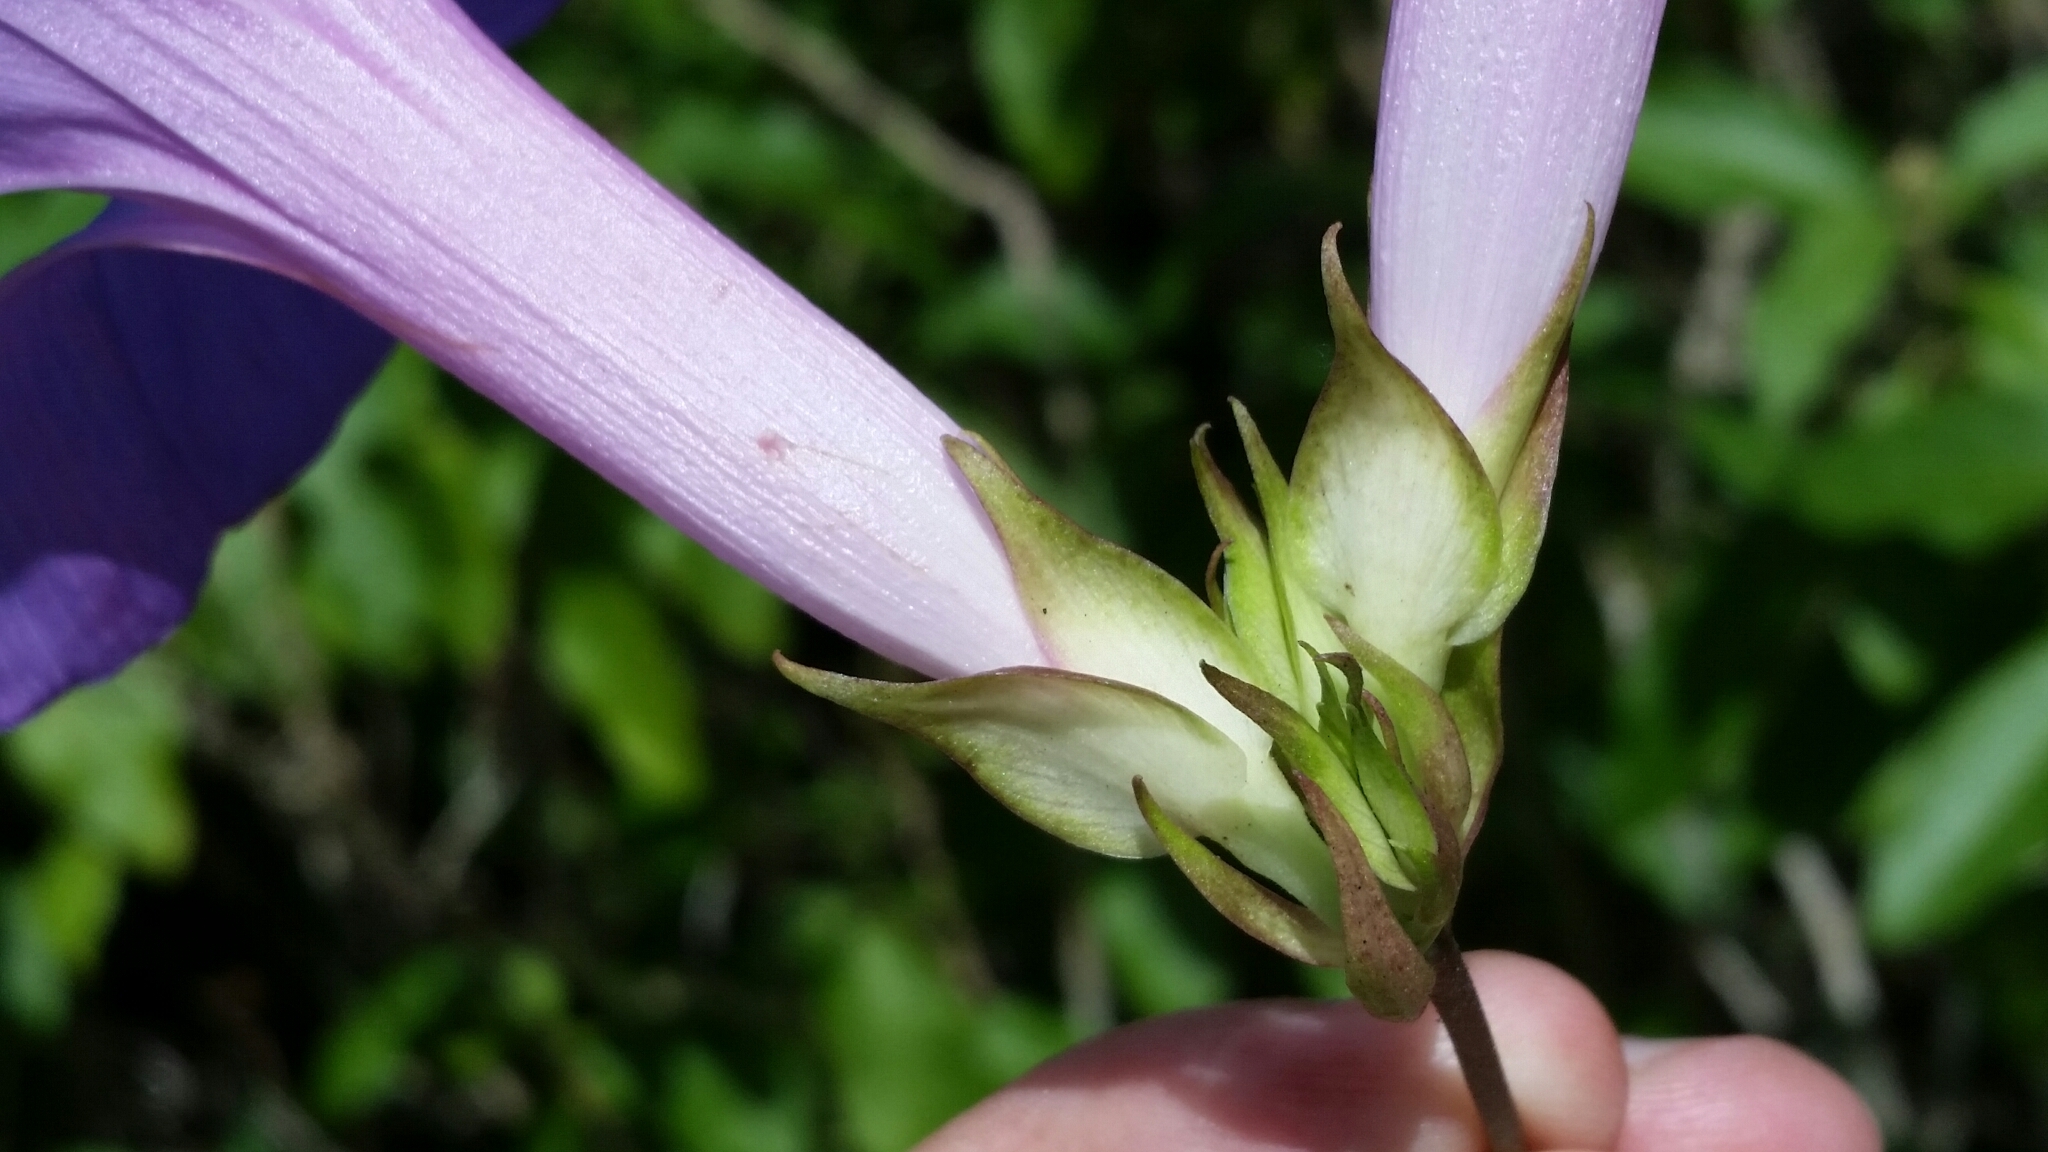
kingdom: Plantae
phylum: Tracheophyta
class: Magnoliopsida
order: Solanales
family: Convolvulaceae
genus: Ipomoea
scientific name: Ipomoea indica
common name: Blue dawnflower
